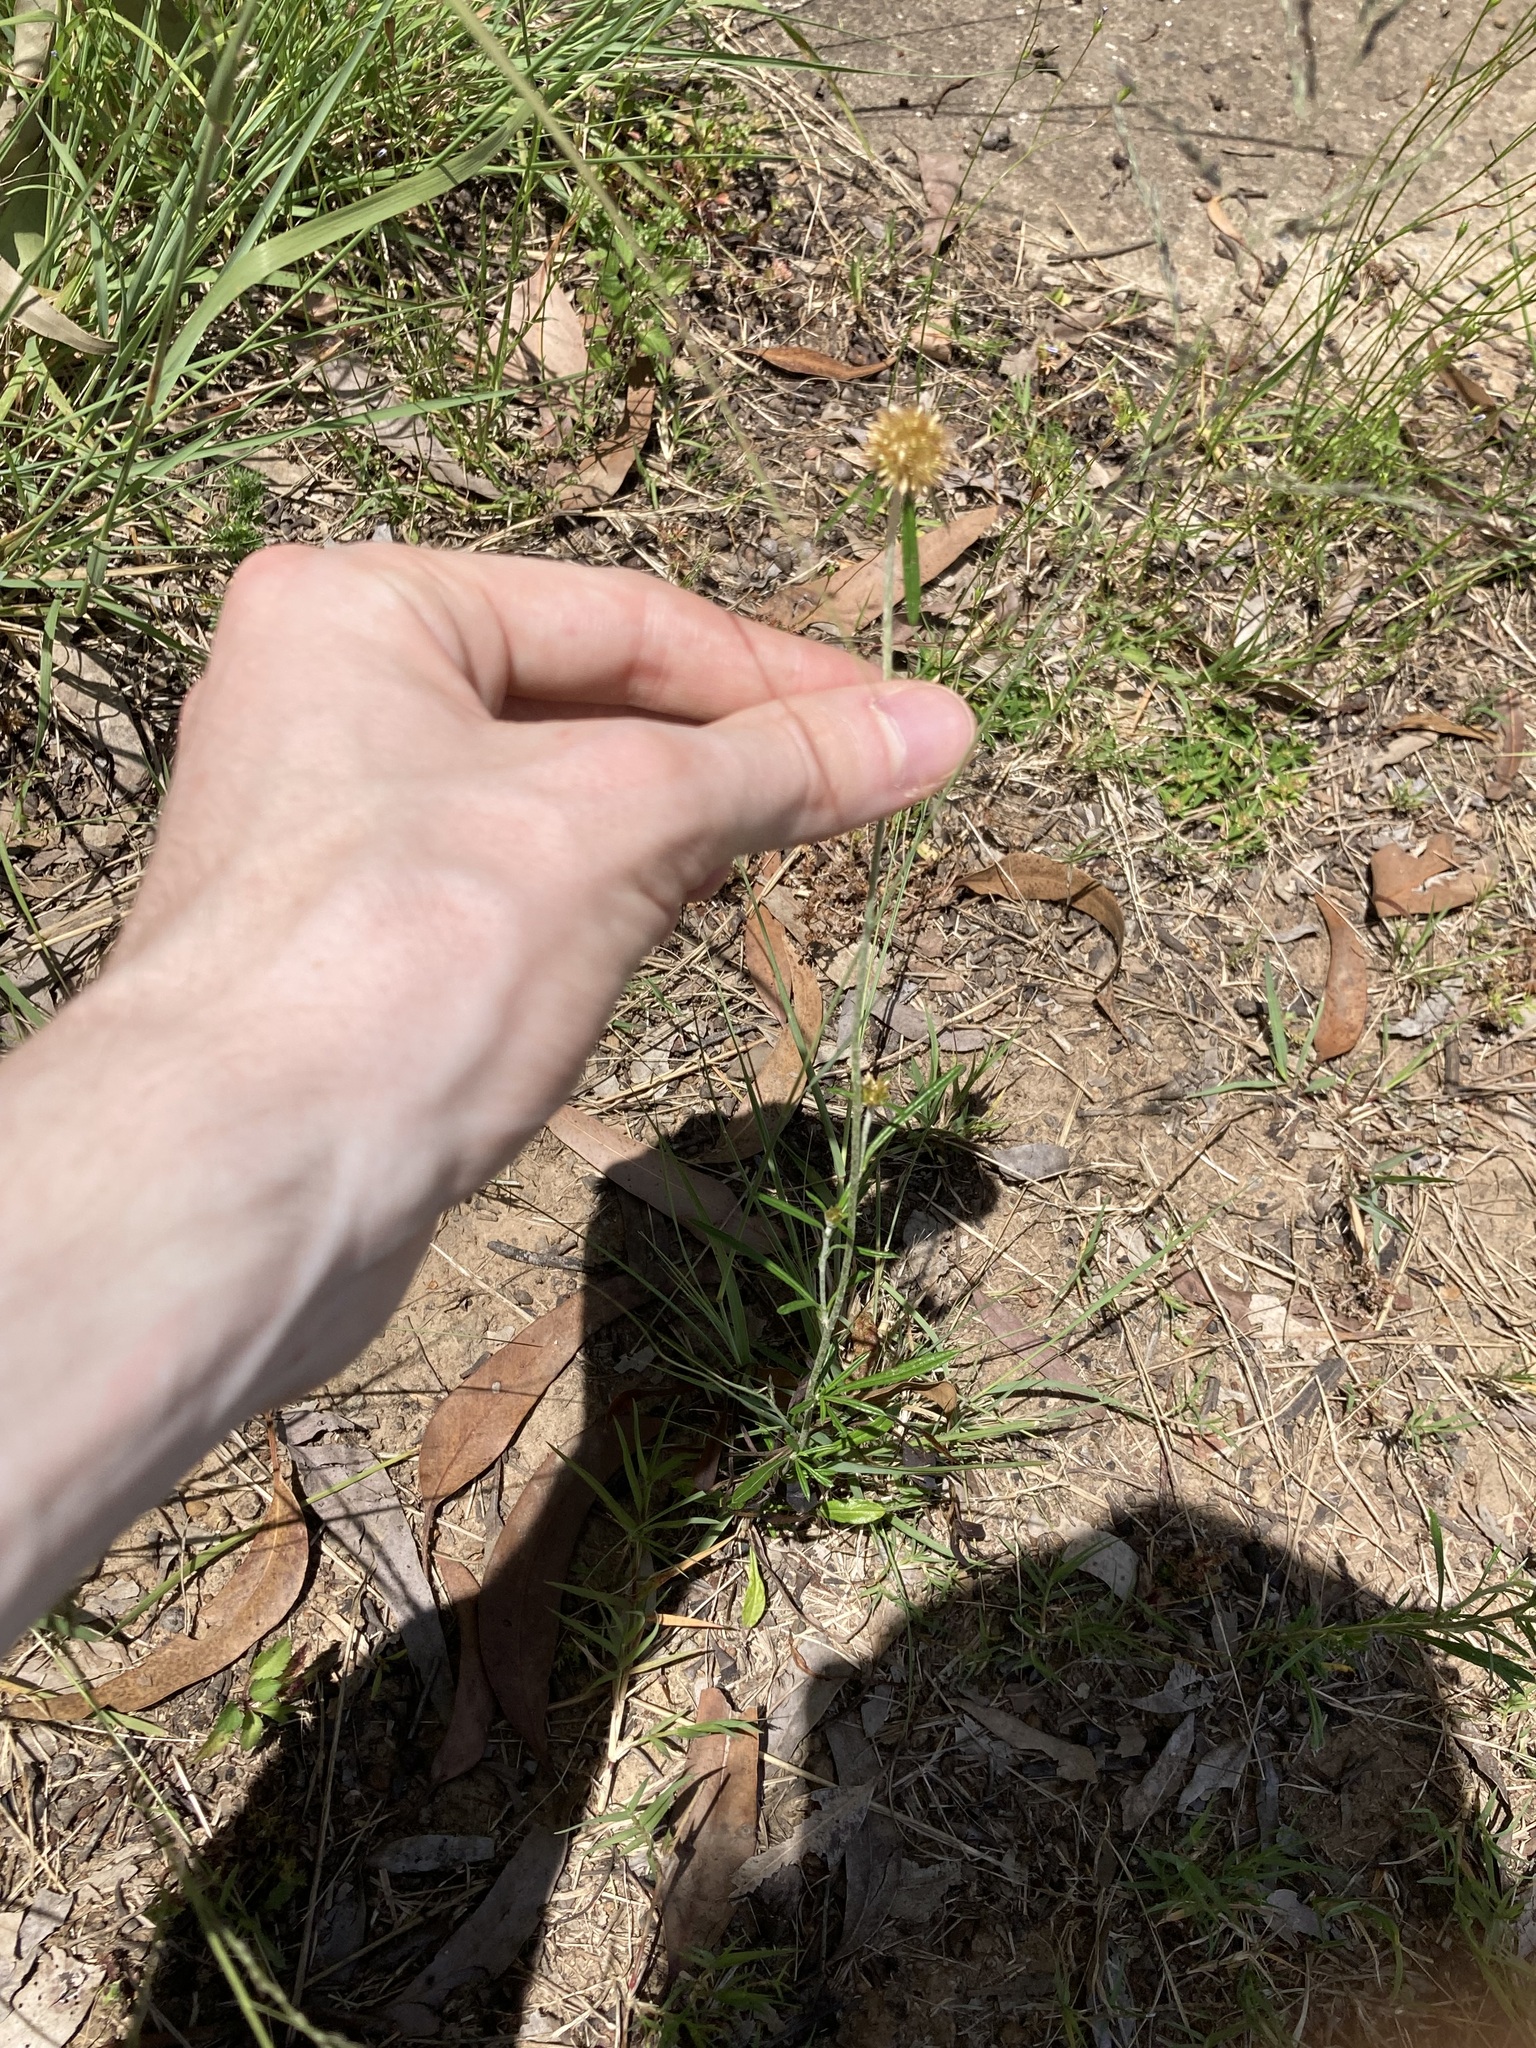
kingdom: Plantae
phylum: Tracheophyta
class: Magnoliopsida
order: Asterales
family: Asteraceae
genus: Euchiton
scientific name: Euchiton sphaericus
